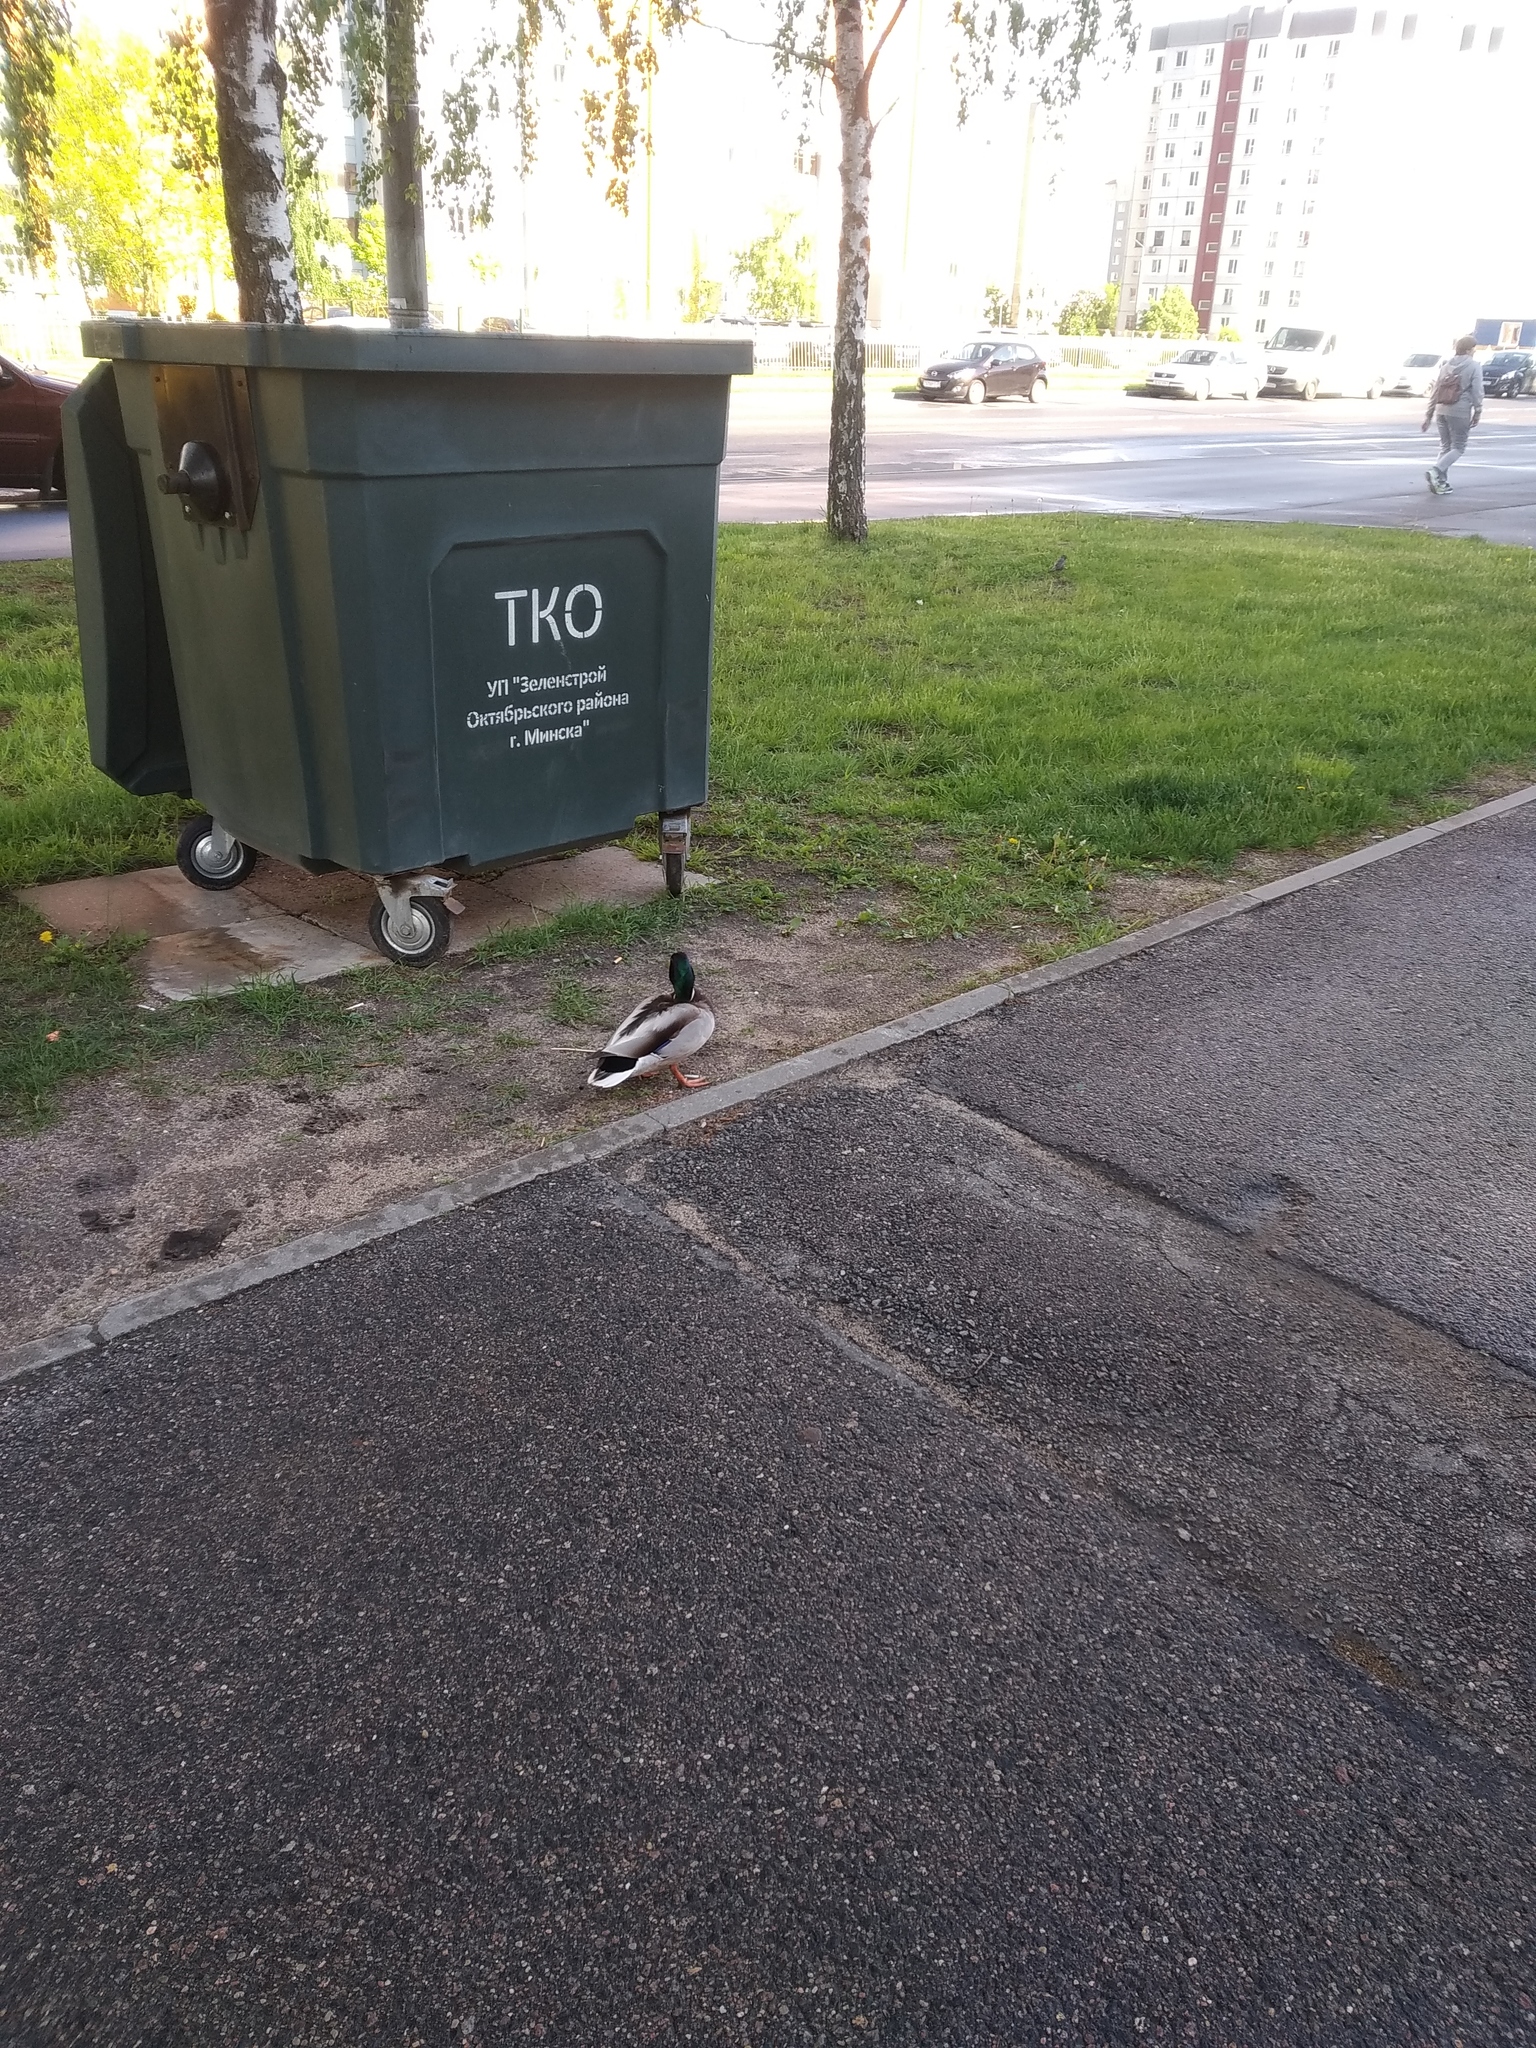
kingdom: Animalia
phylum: Chordata
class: Aves
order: Anseriformes
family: Anatidae
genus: Anas
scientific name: Anas platyrhynchos
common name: Mallard
